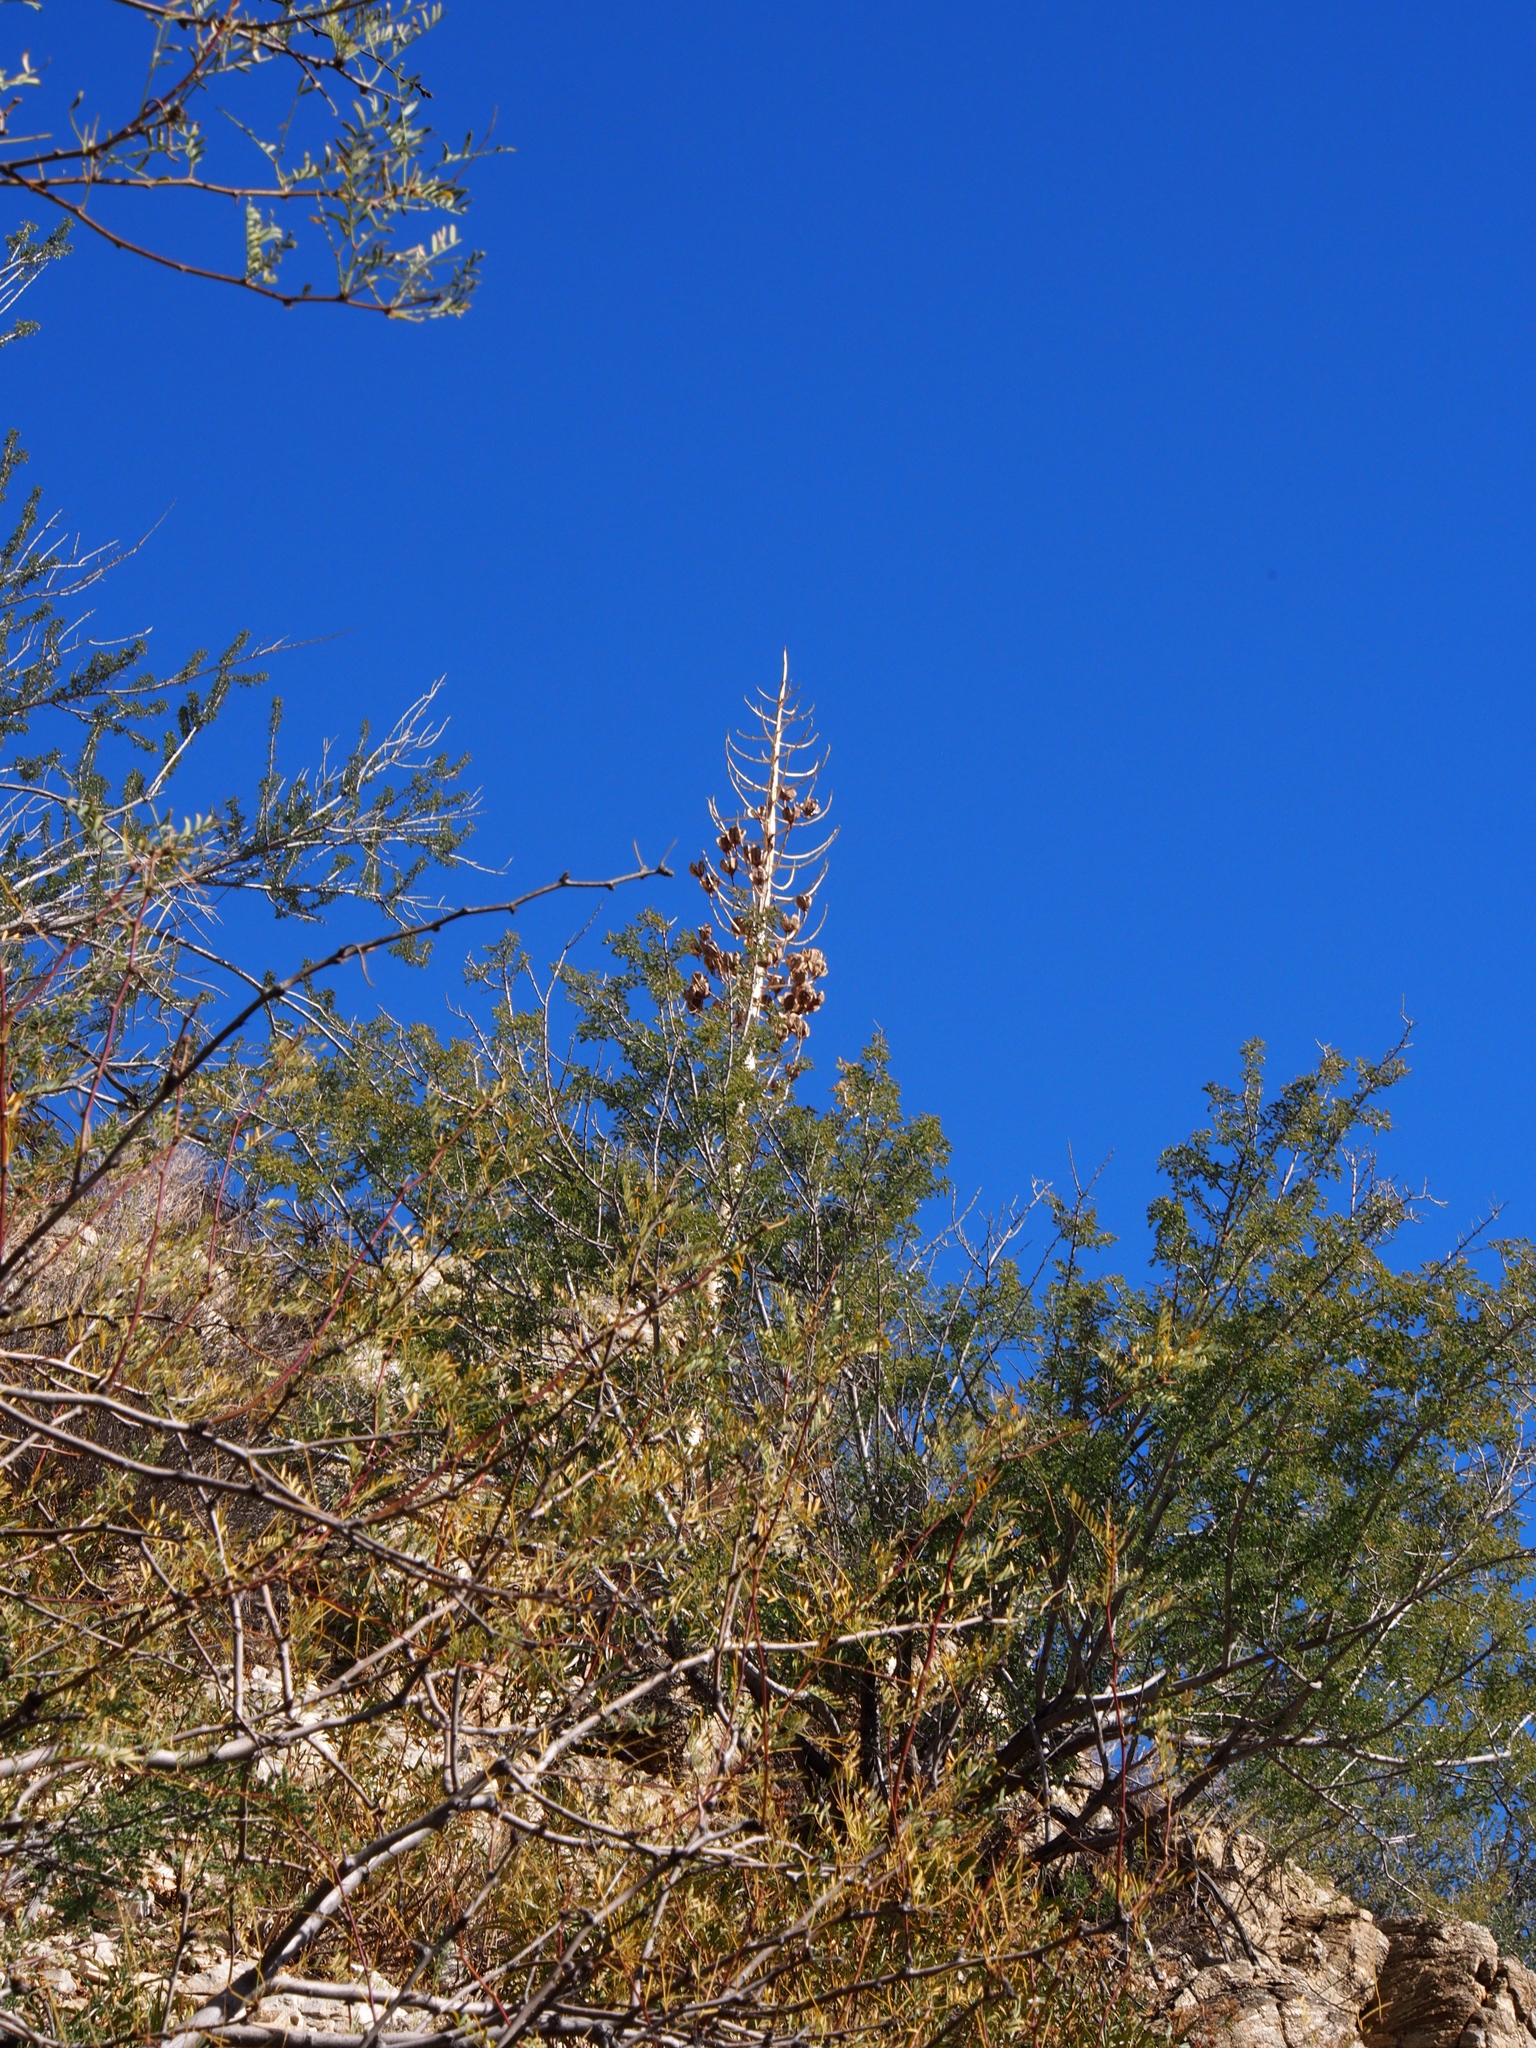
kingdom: Plantae
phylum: Tracheophyta
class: Liliopsida
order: Asparagales
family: Asparagaceae
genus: Hesperoyucca
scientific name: Hesperoyucca whipplei
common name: Our lord's-candle
